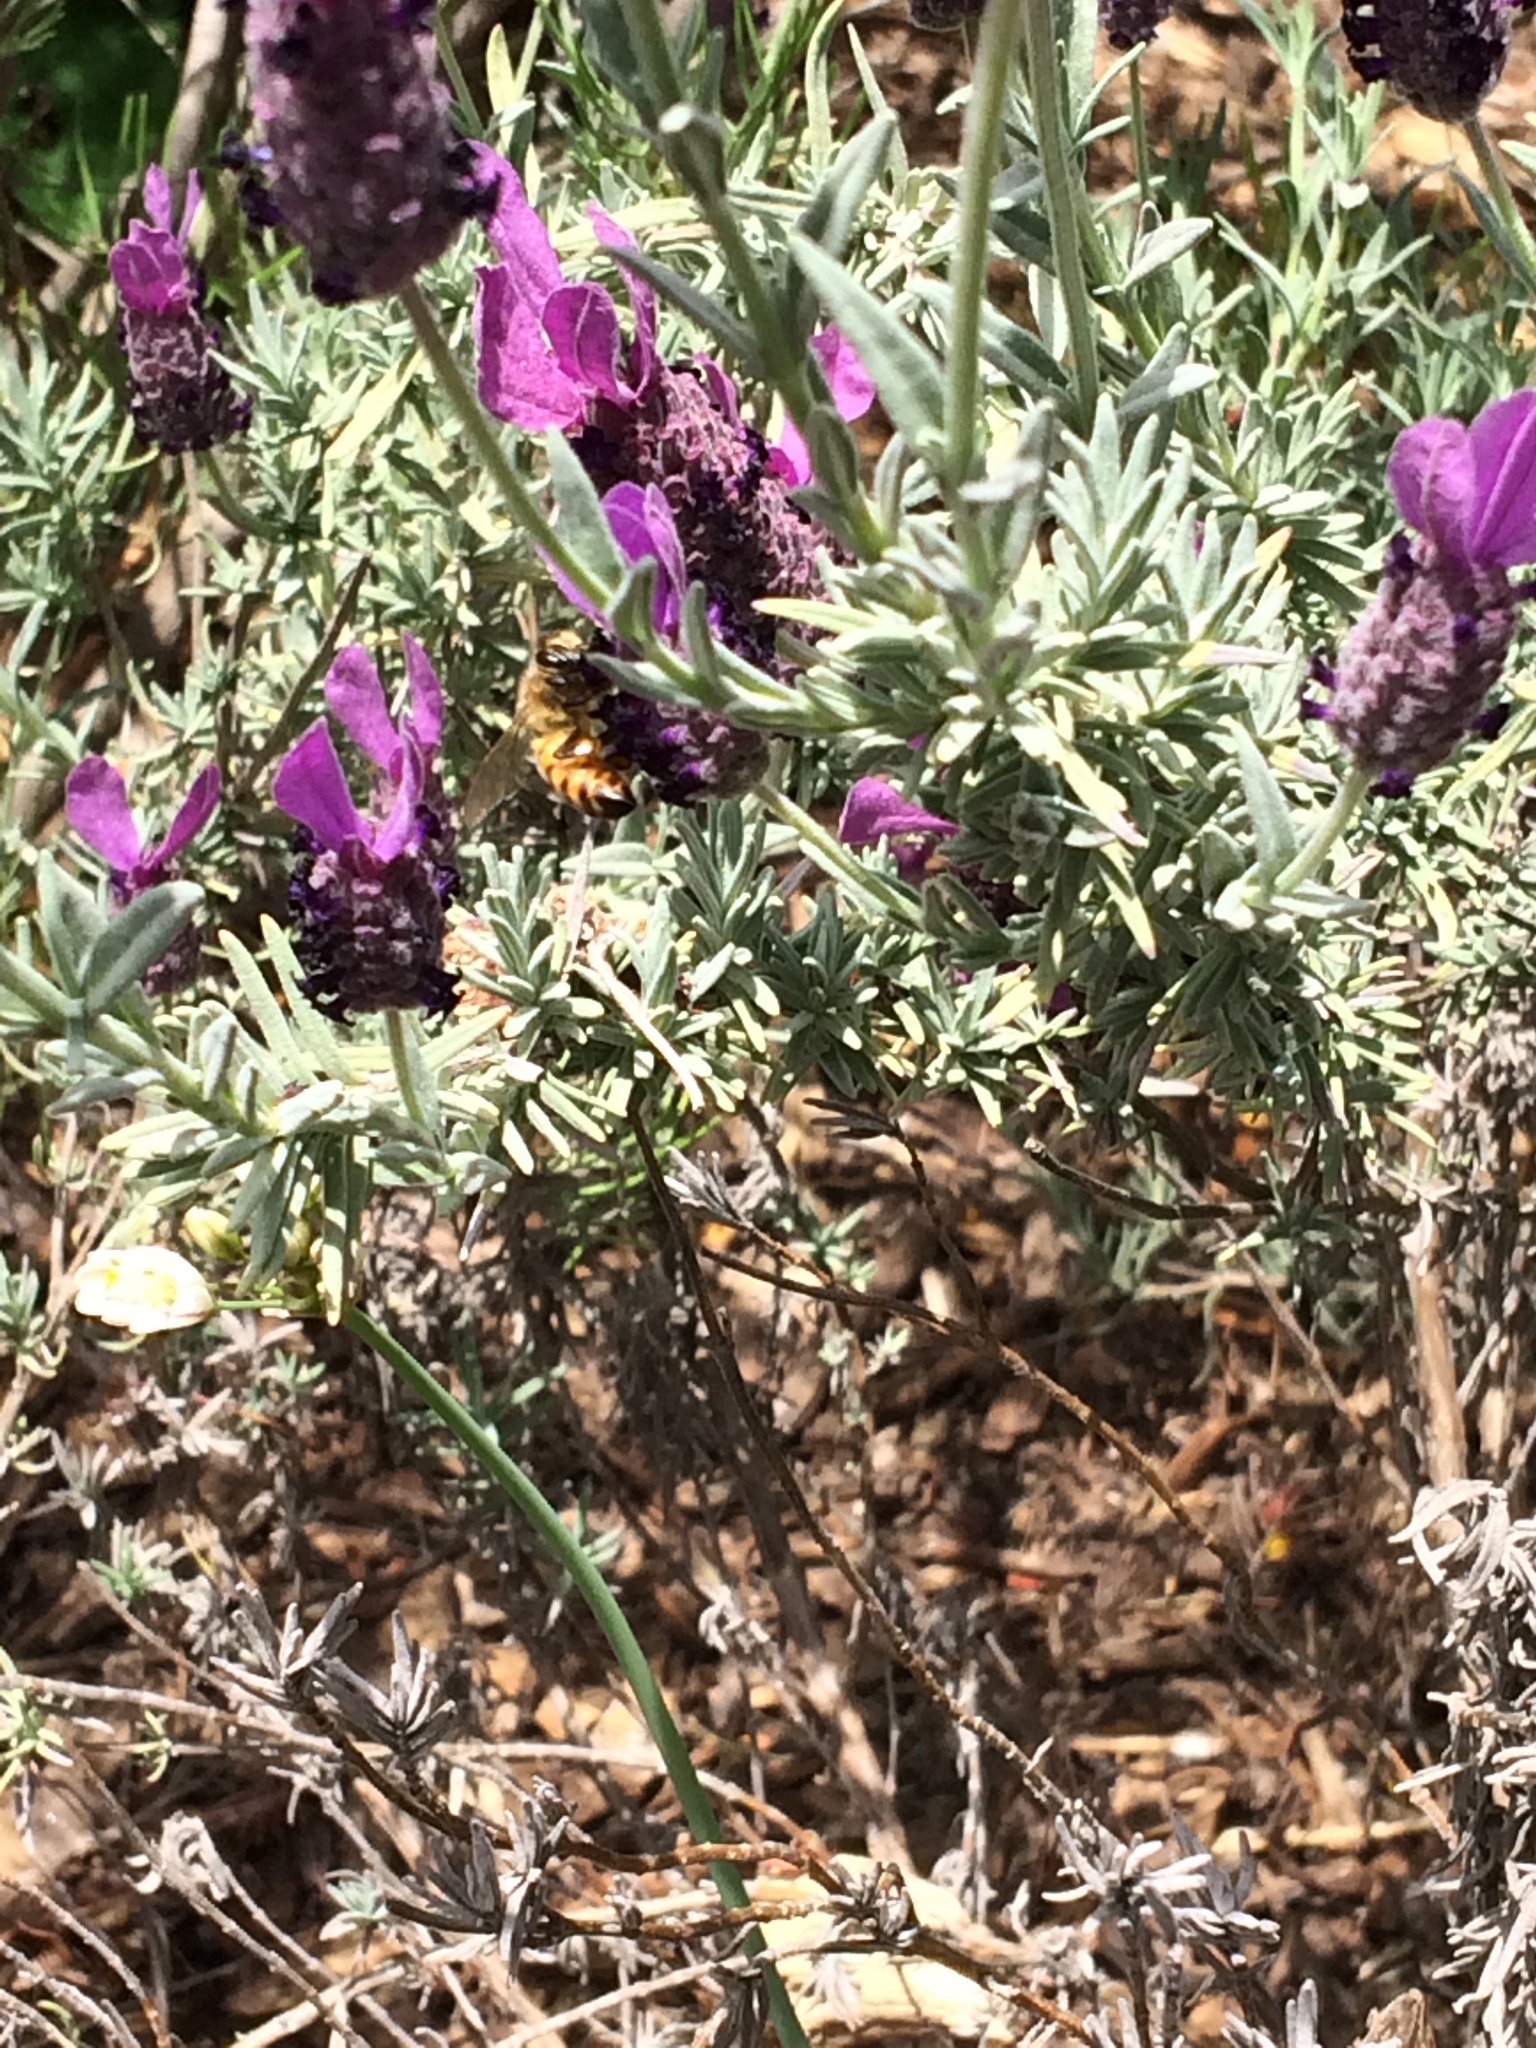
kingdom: Animalia
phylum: Arthropoda
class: Insecta
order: Hymenoptera
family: Apidae
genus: Apis
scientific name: Apis mellifera
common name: Honey bee
